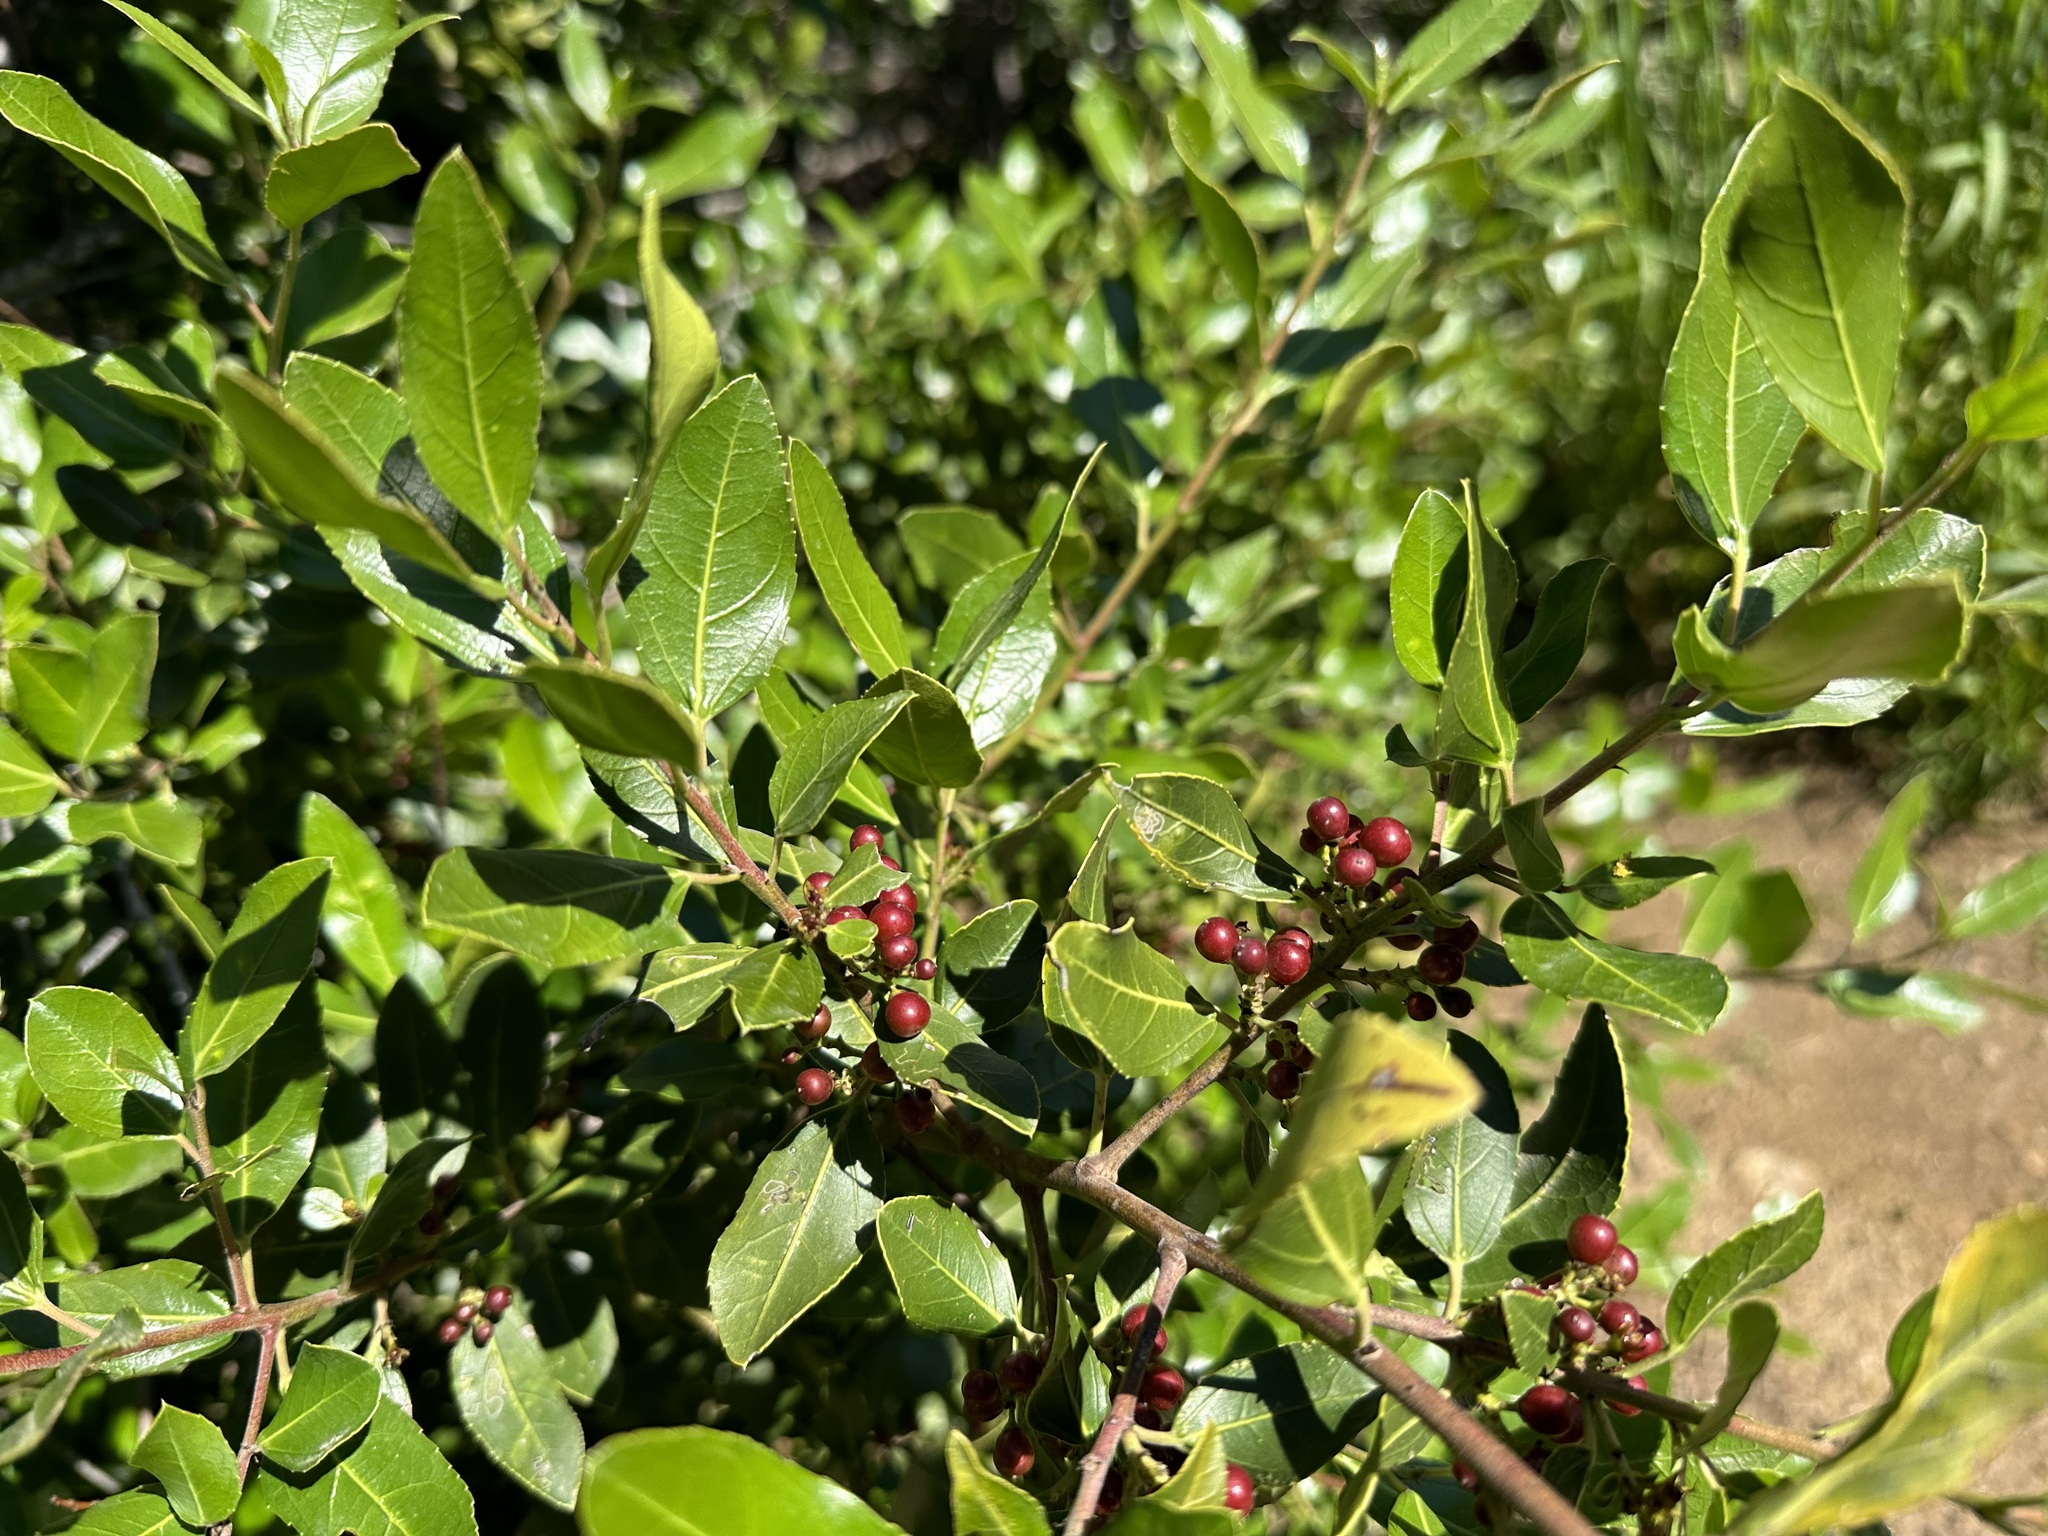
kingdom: Plantae
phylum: Tracheophyta
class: Magnoliopsida
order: Rosales
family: Rhamnaceae
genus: Rhamnus
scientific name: Rhamnus alaternus
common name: Mediterranean buckthorn
